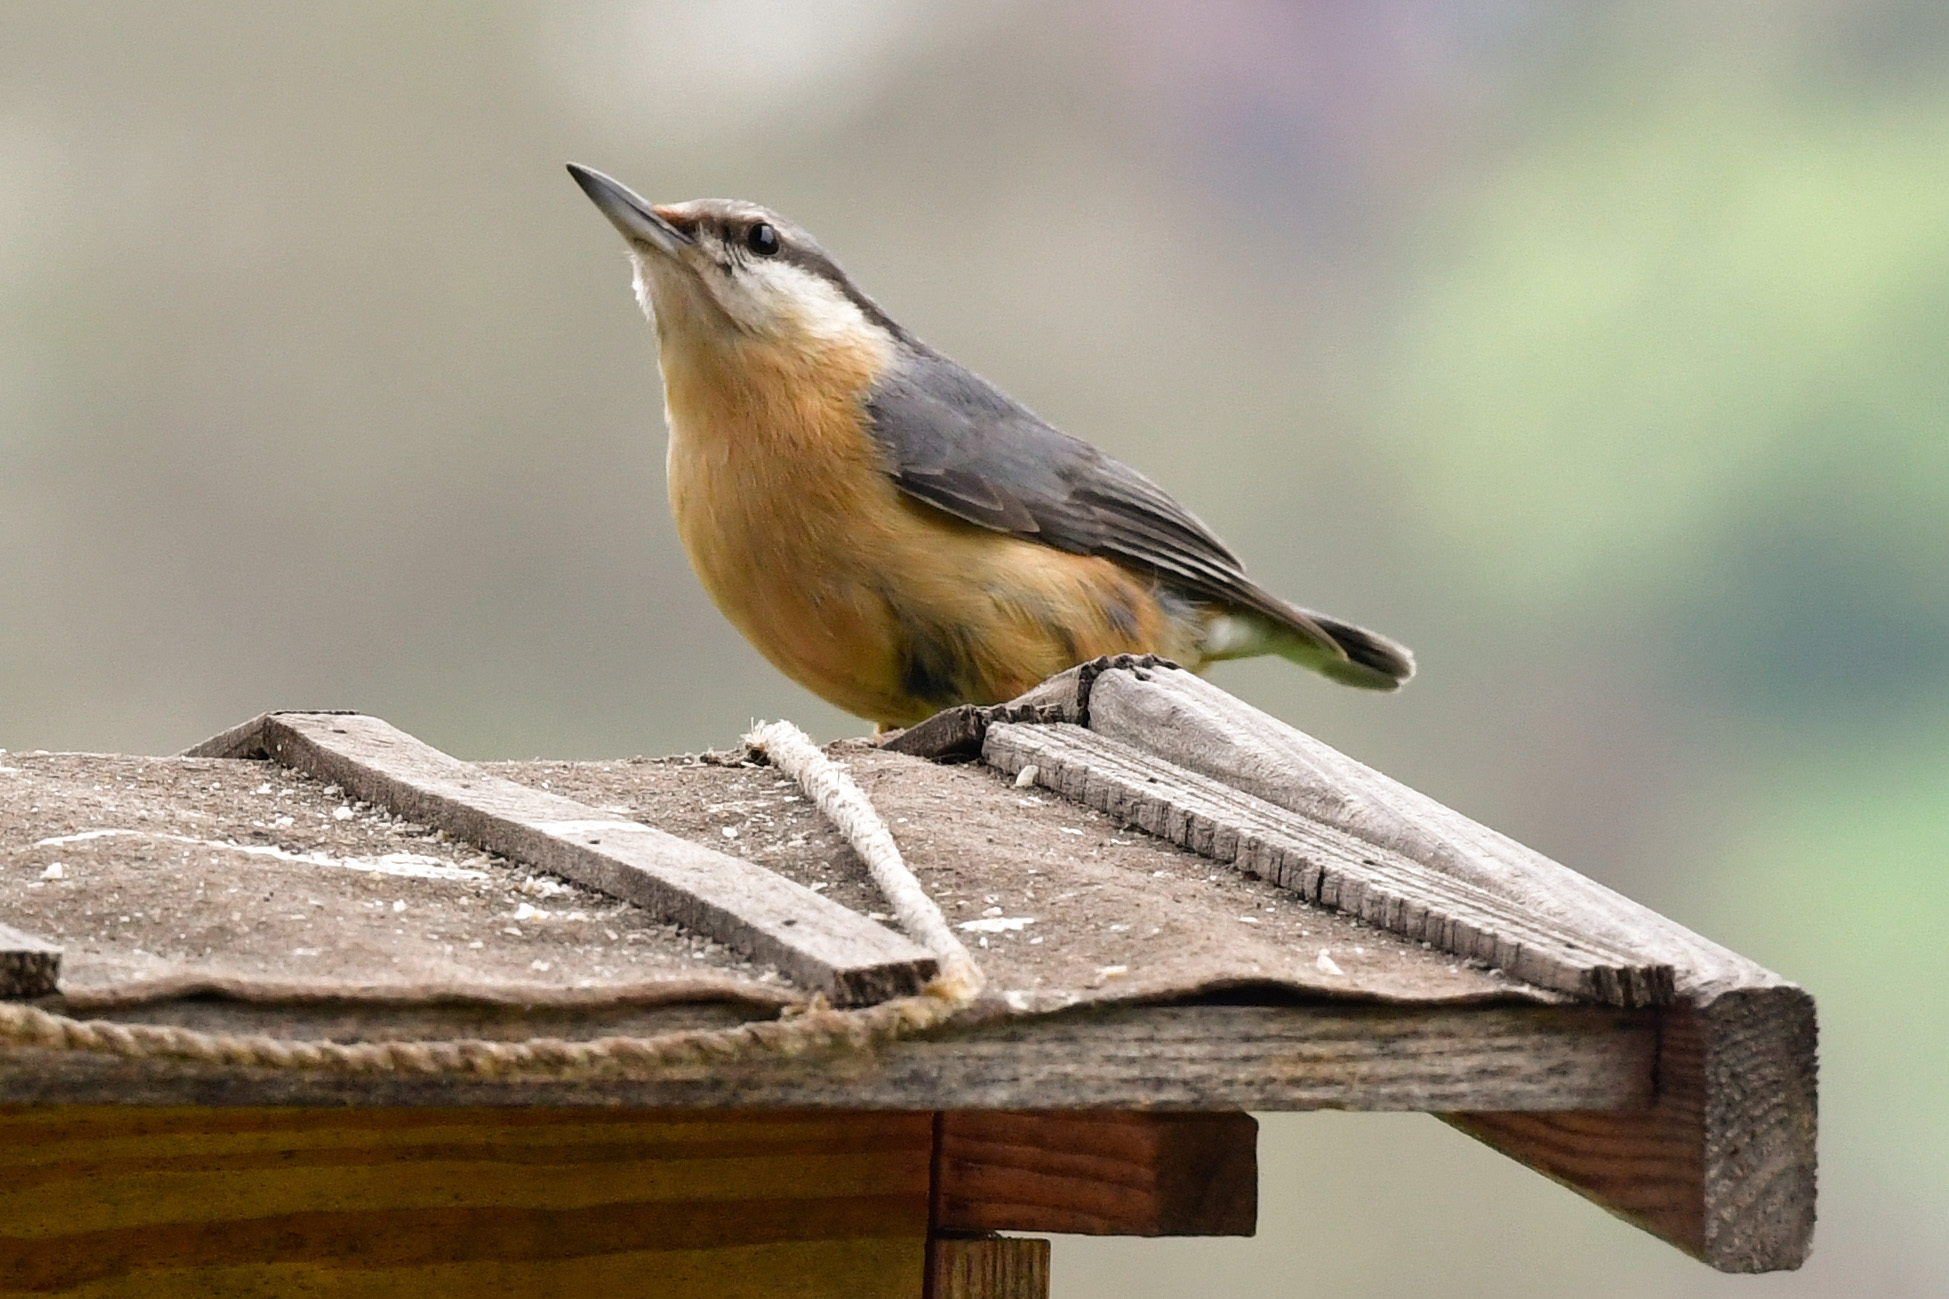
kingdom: Animalia
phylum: Chordata
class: Aves
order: Passeriformes
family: Sittidae
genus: Sitta
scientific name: Sitta europaea
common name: Eurasian nuthatch
